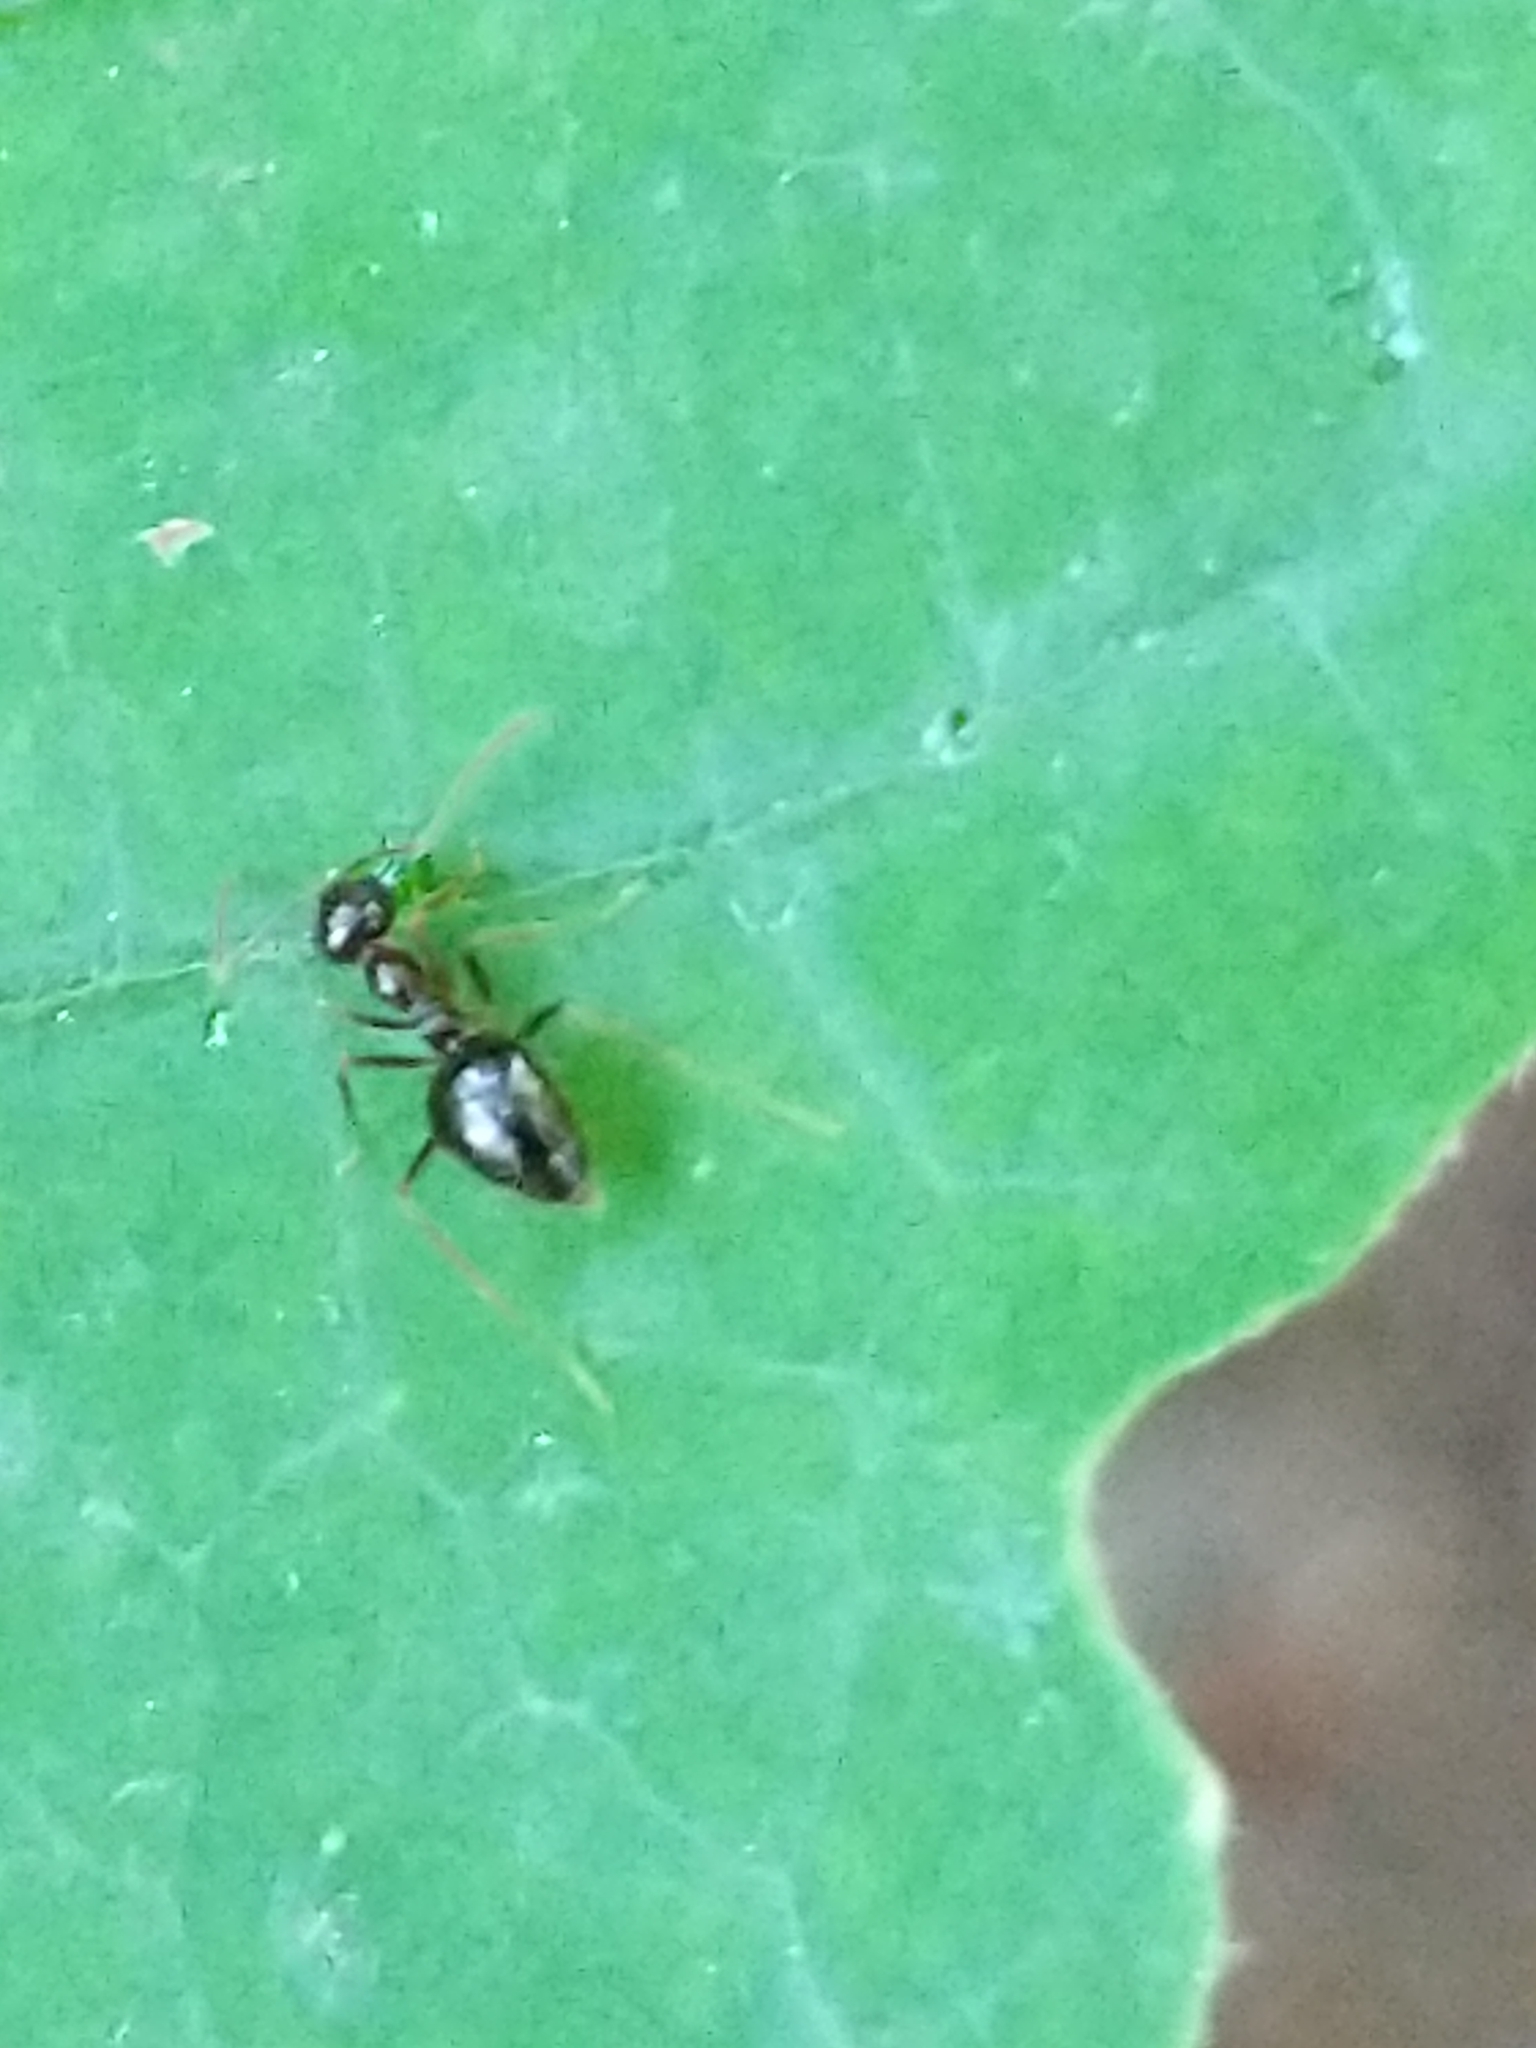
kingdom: Animalia
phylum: Arthropoda
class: Insecta
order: Hymenoptera
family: Formicidae
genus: Prenolepis
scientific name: Prenolepis imparis
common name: Small honey ant
